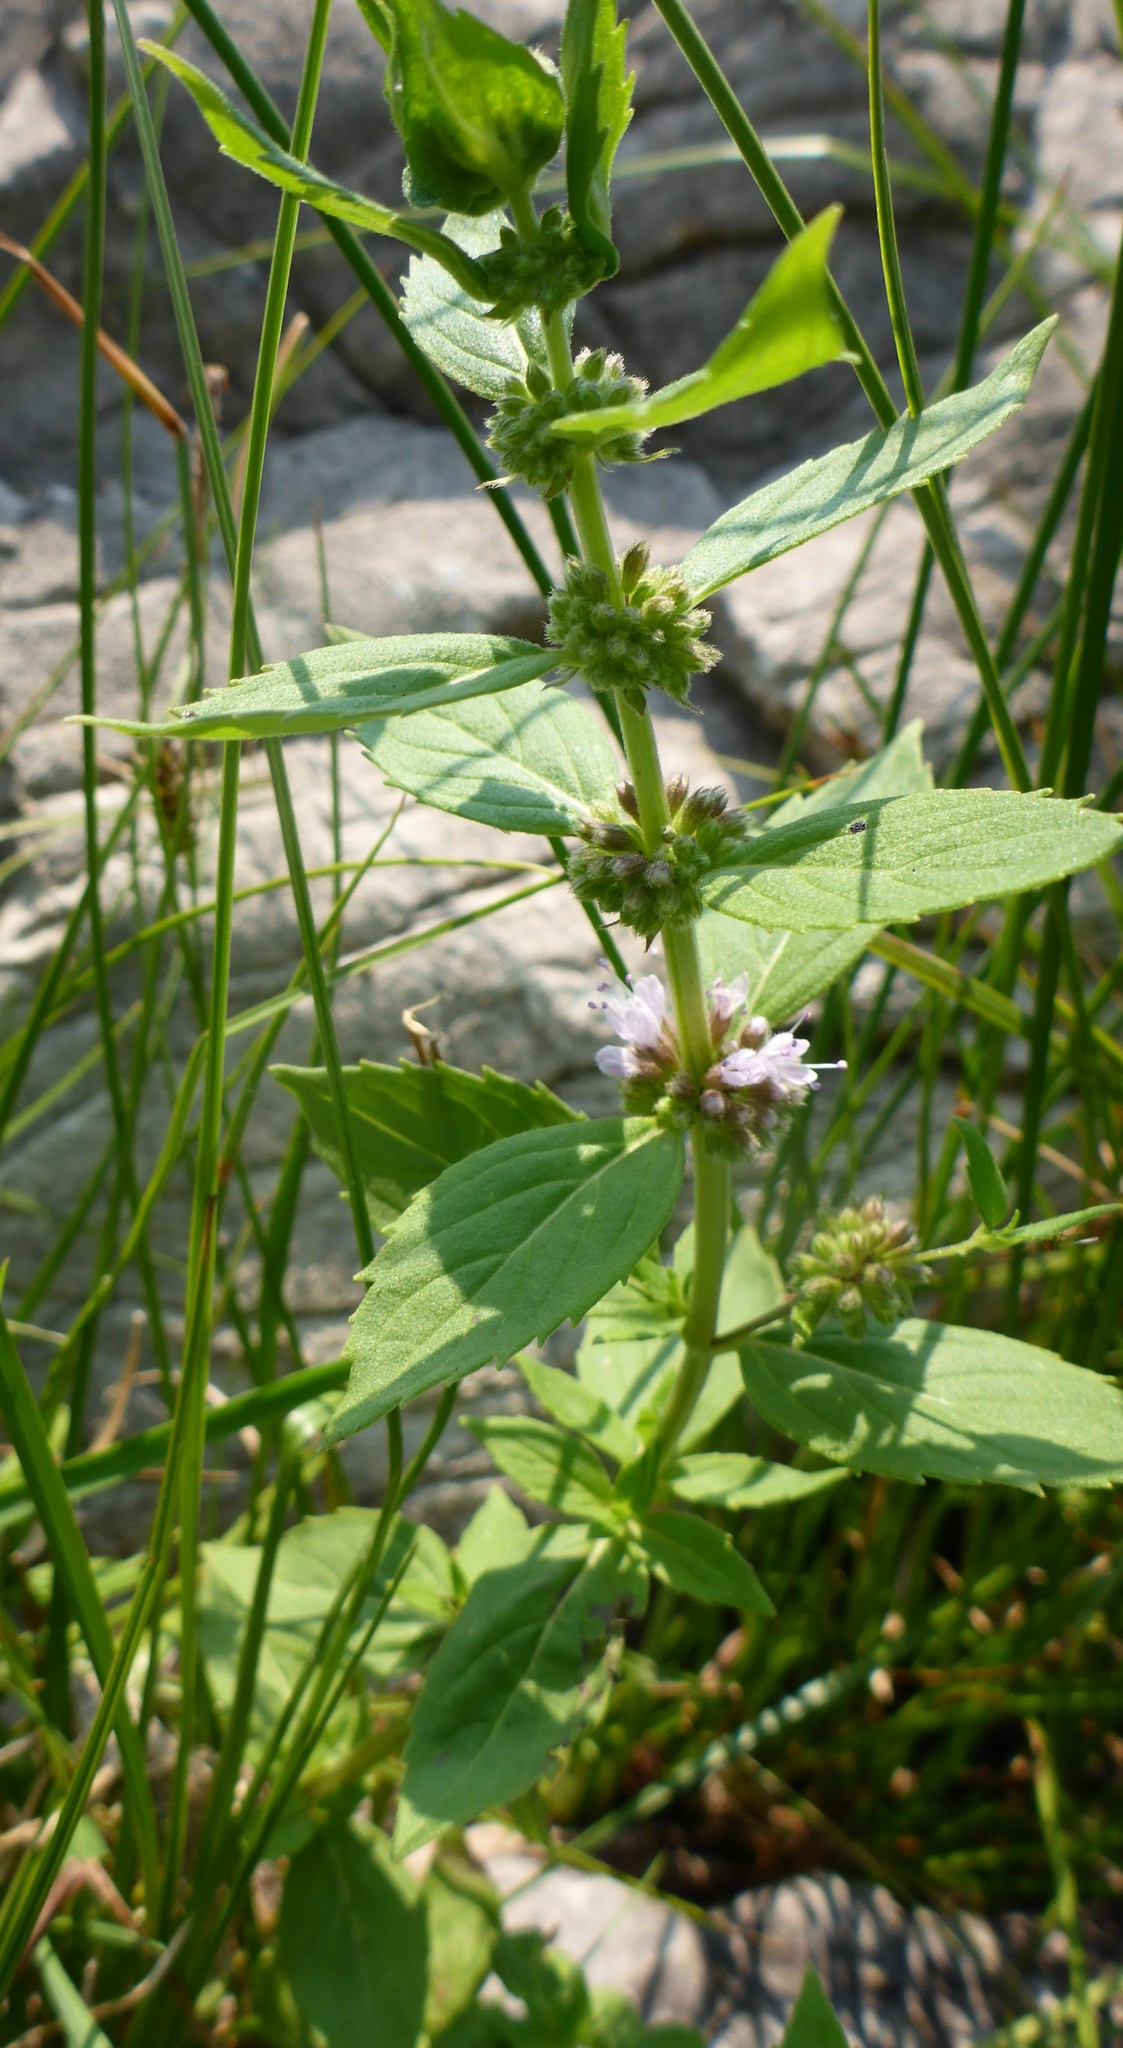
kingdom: Plantae
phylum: Tracheophyta
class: Magnoliopsida
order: Lamiales
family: Lamiaceae
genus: Mentha
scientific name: Mentha canadensis
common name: American corn mint
